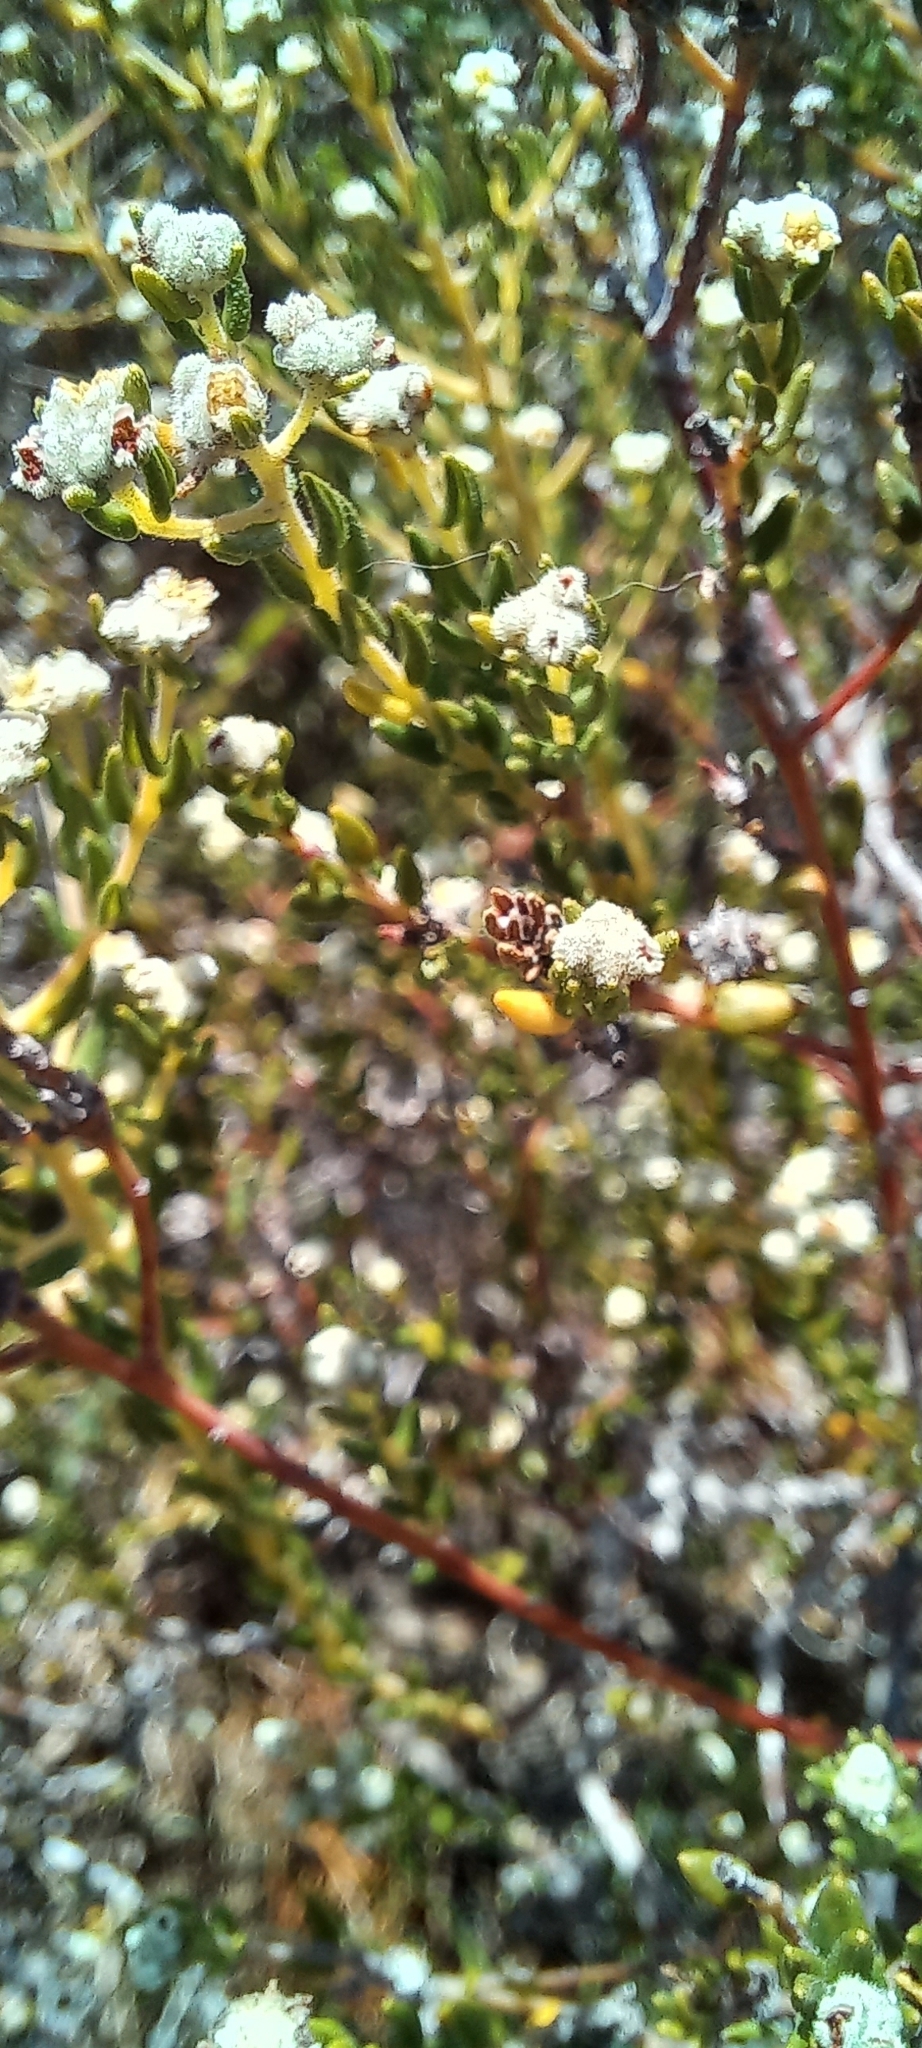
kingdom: Plantae
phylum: Tracheophyta
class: Magnoliopsida
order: Rosales
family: Rhamnaceae
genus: Phylica
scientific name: Phylica ericoides
